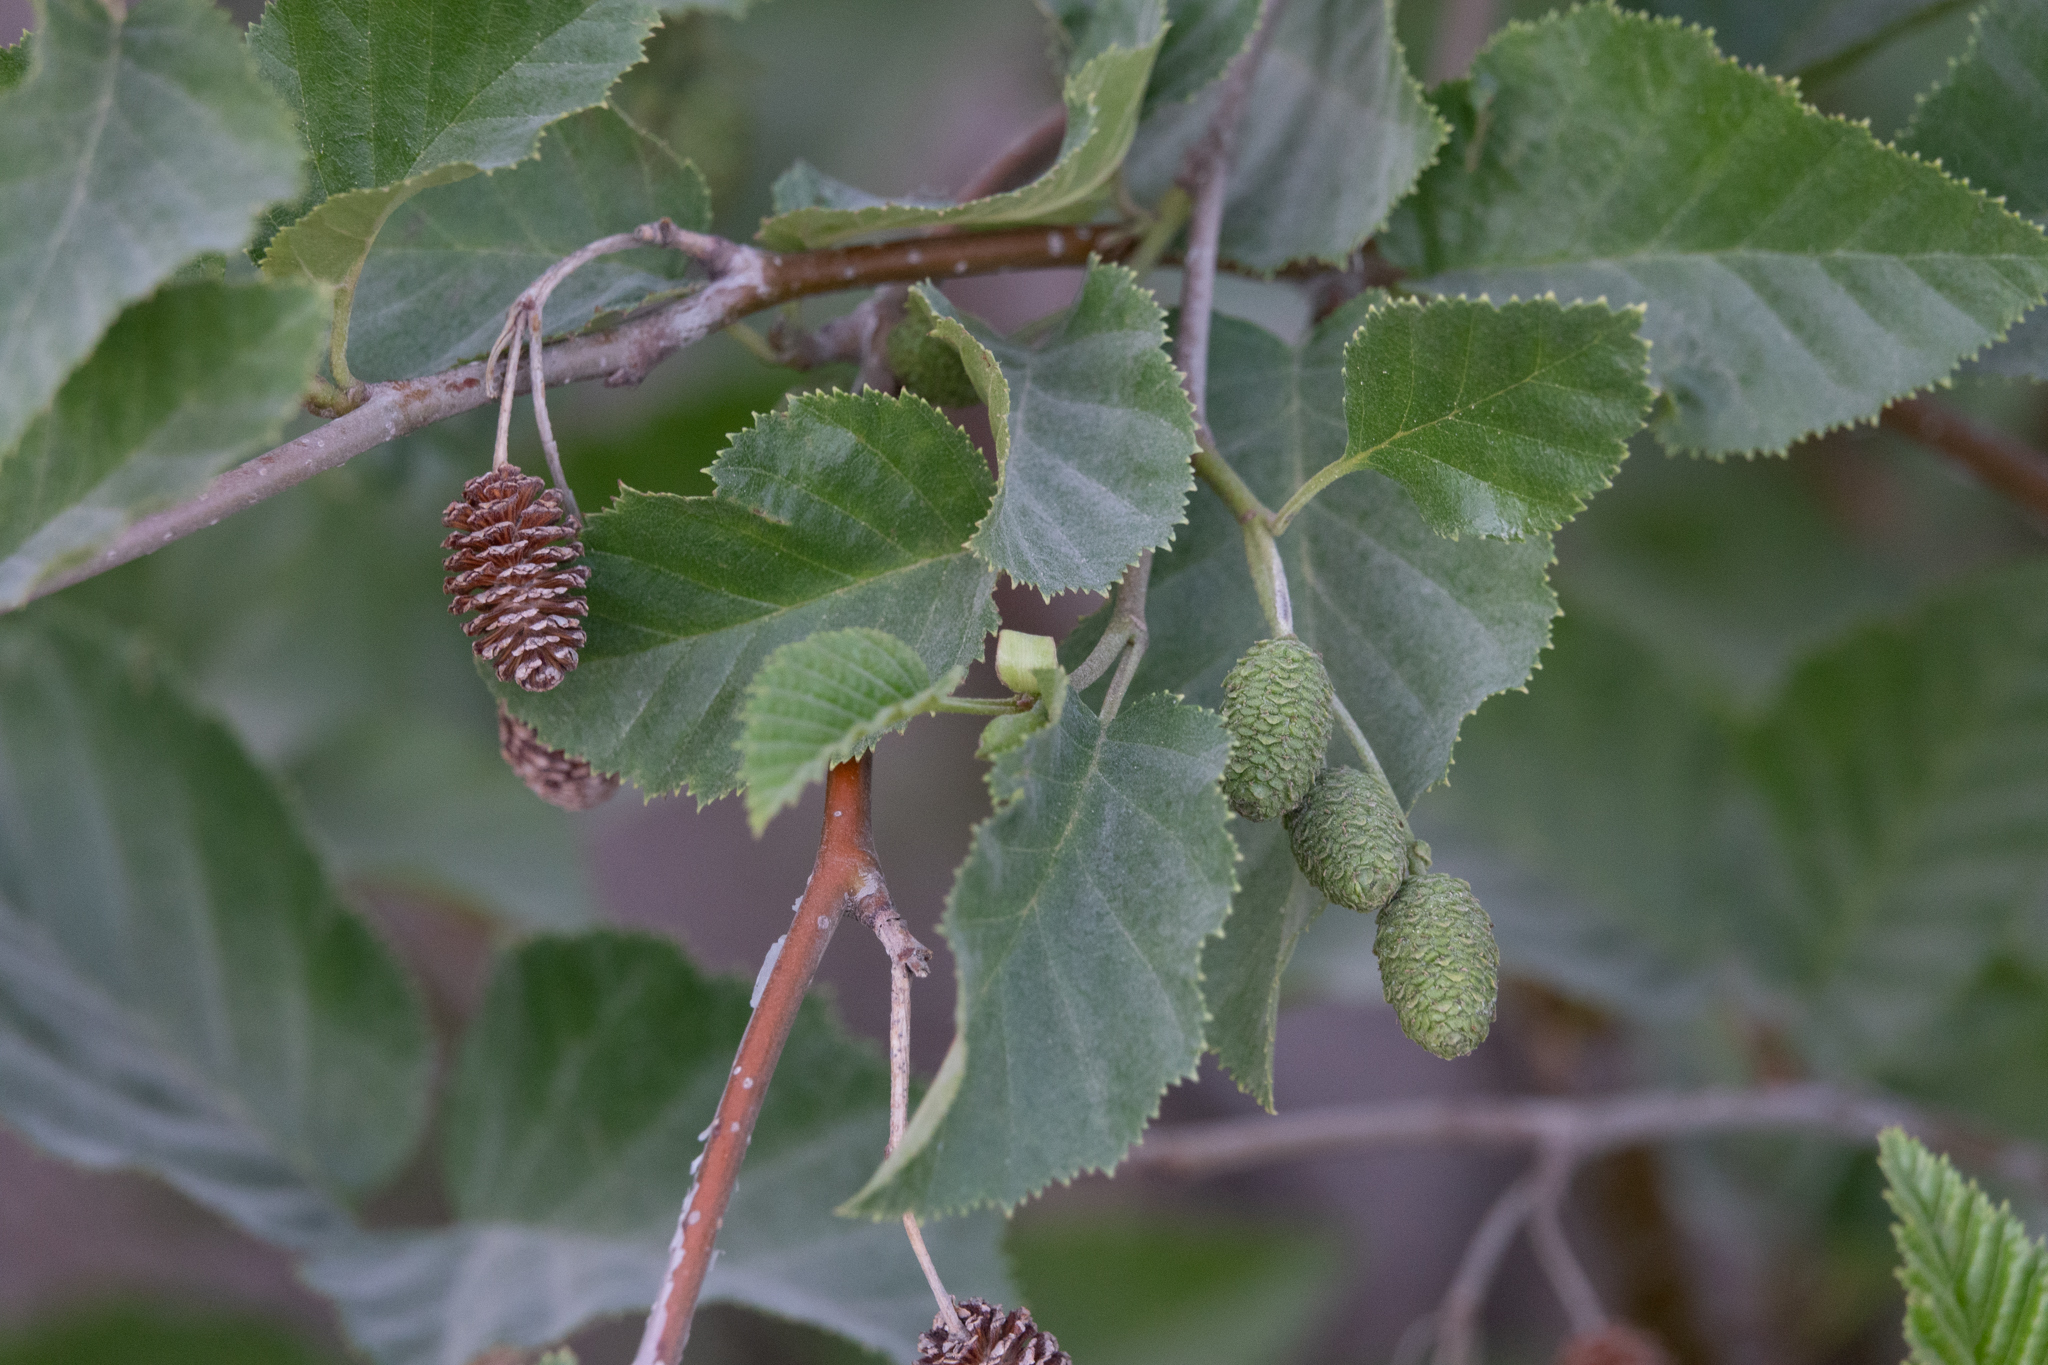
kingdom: Plantae
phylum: Tracheophyta
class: Magnoliopsida
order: Fagales
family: Betulaceae
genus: Alnus
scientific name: Alnus rhombifolia
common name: California alder
